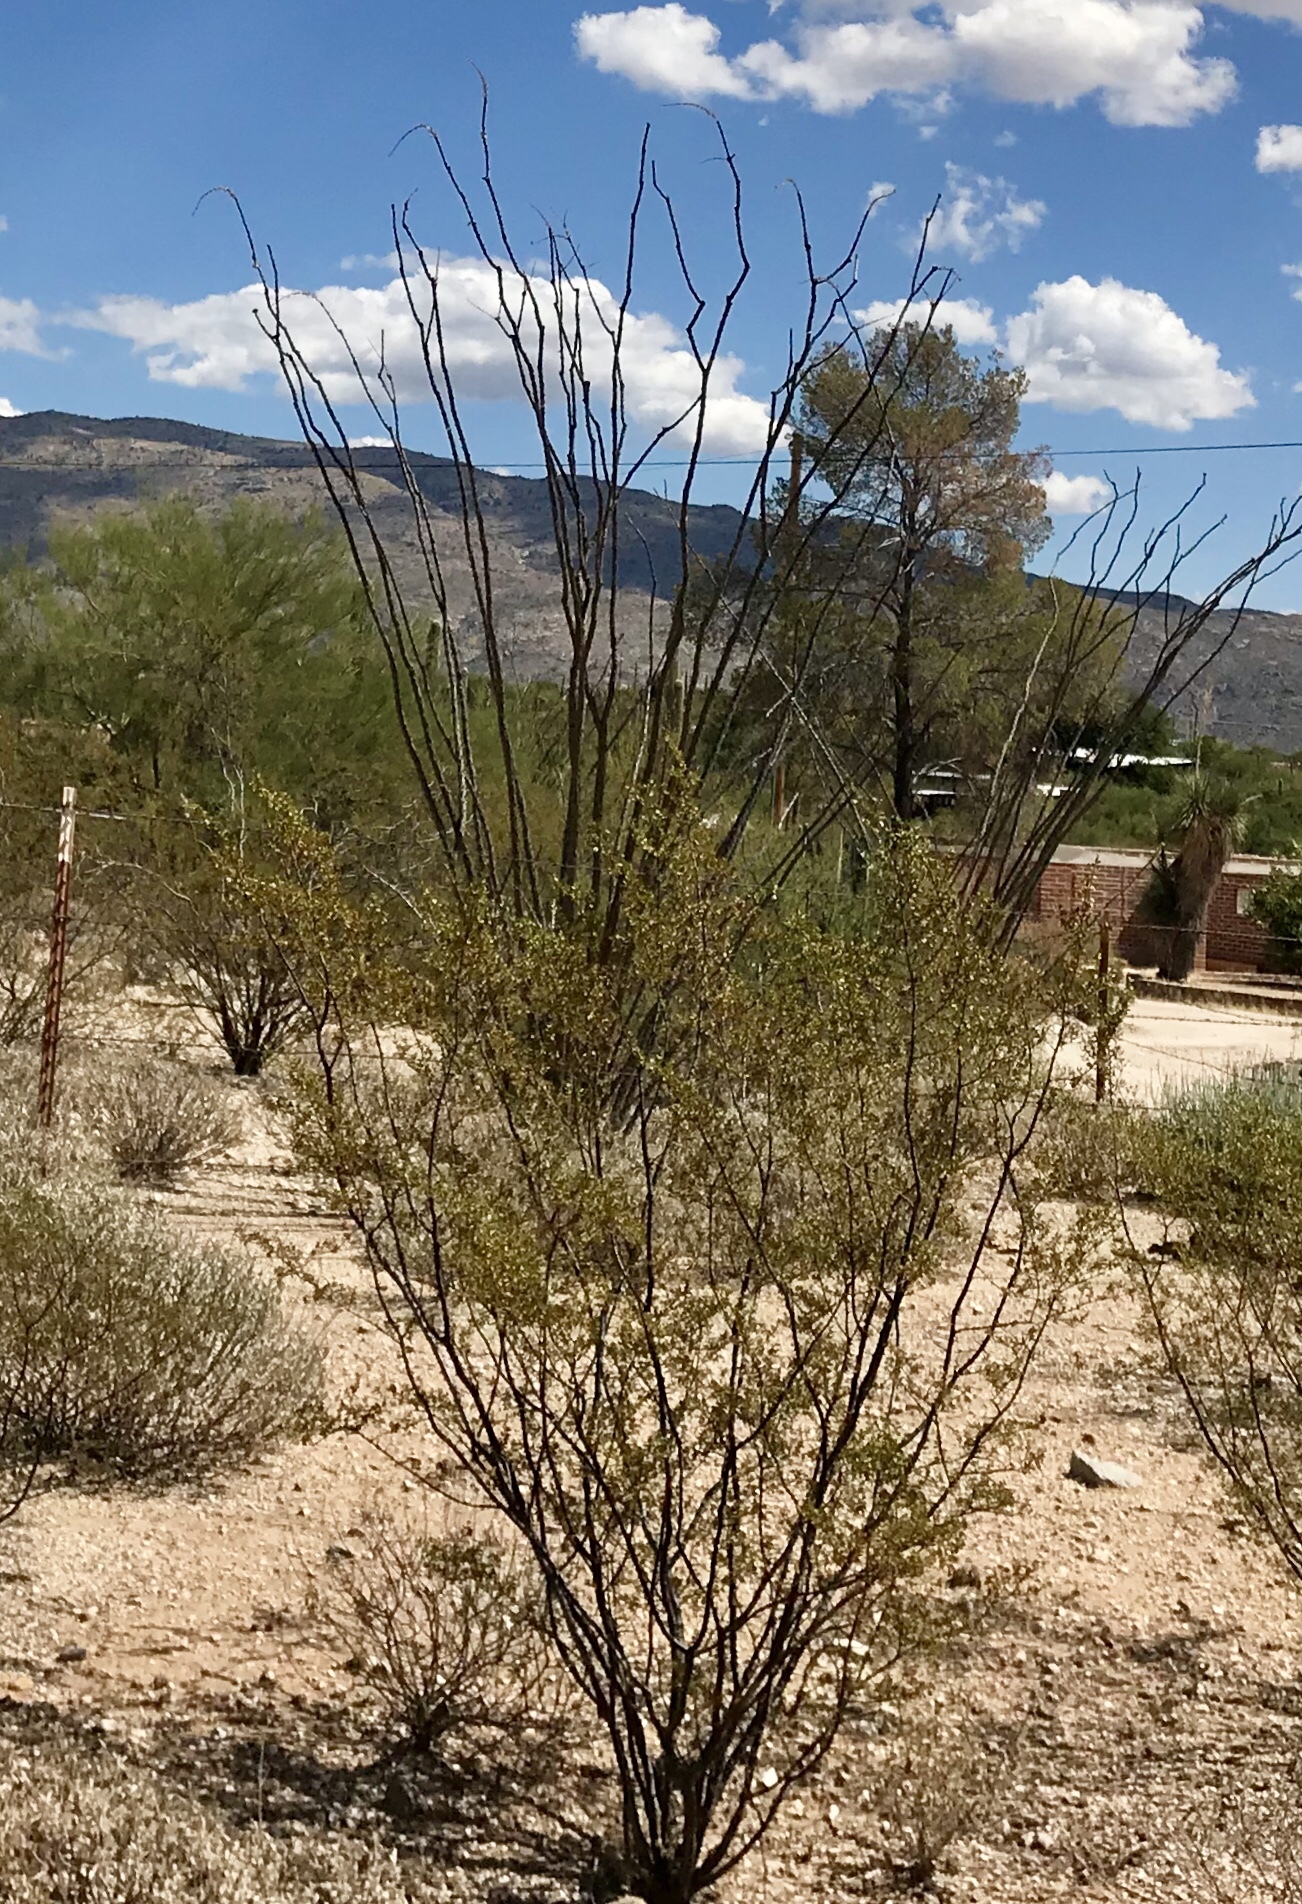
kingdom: Plantae
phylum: Tracheophyta
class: Magnoliopsida
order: Zygophyllales
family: Zygophyllaceae
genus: Larrea
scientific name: Larrea tridentata
